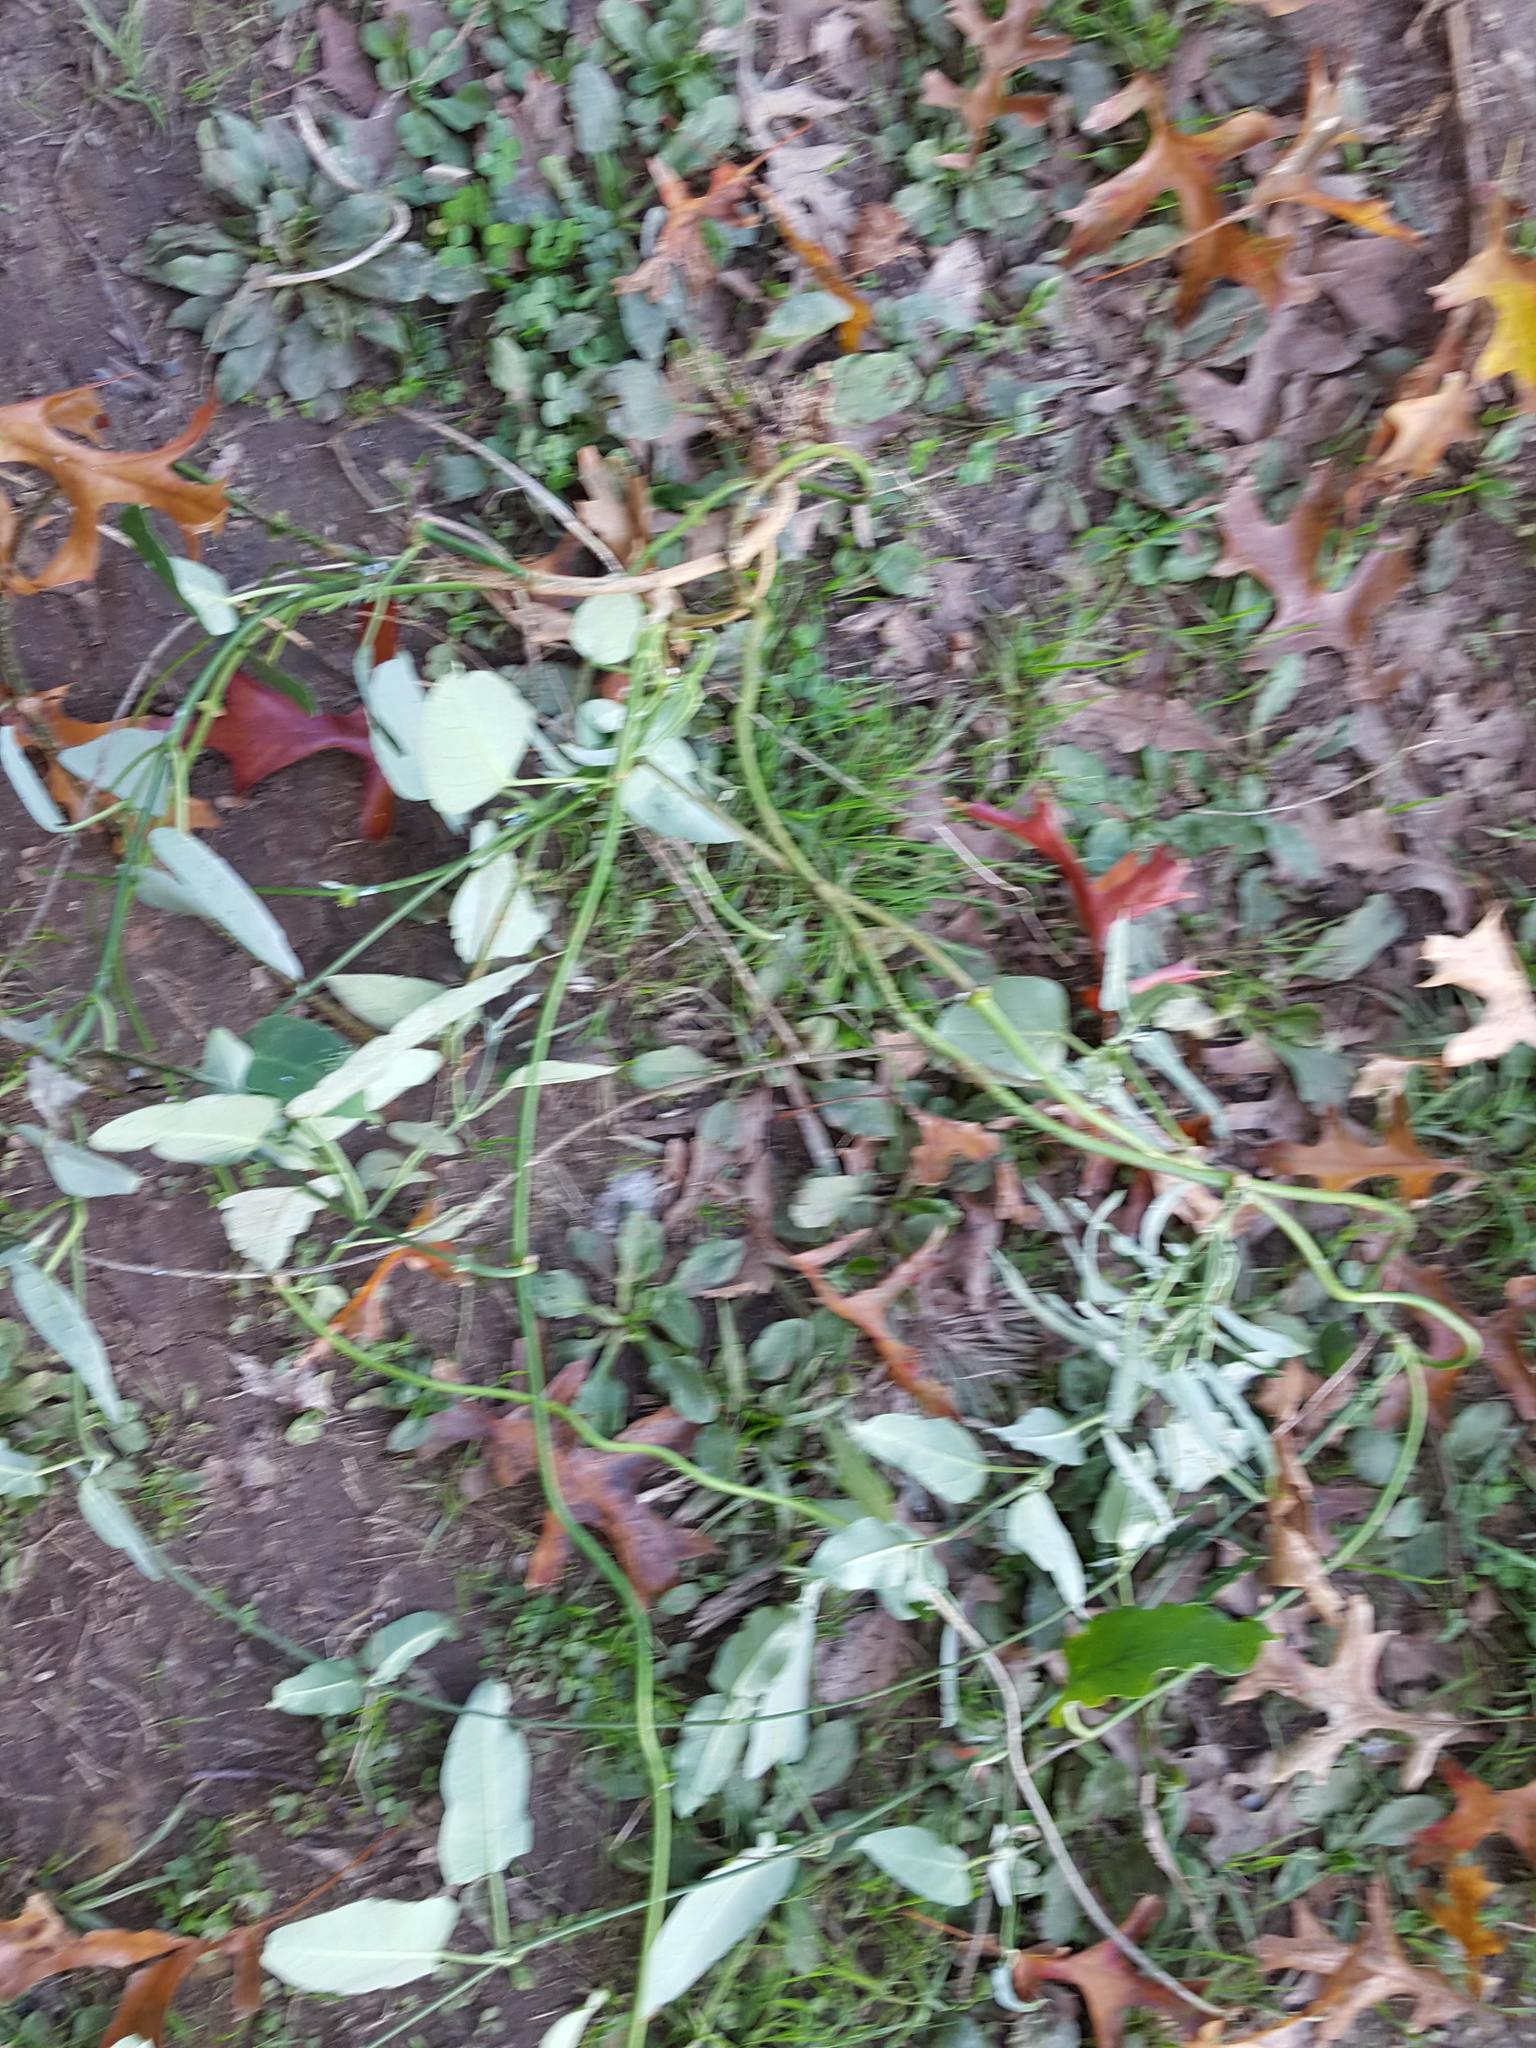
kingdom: Plantae
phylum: Tracheophyta
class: Magnoliopsida
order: Gentianales
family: Apocynaceae
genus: Araujia
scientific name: Araujia sericifera
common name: White bladderflower
